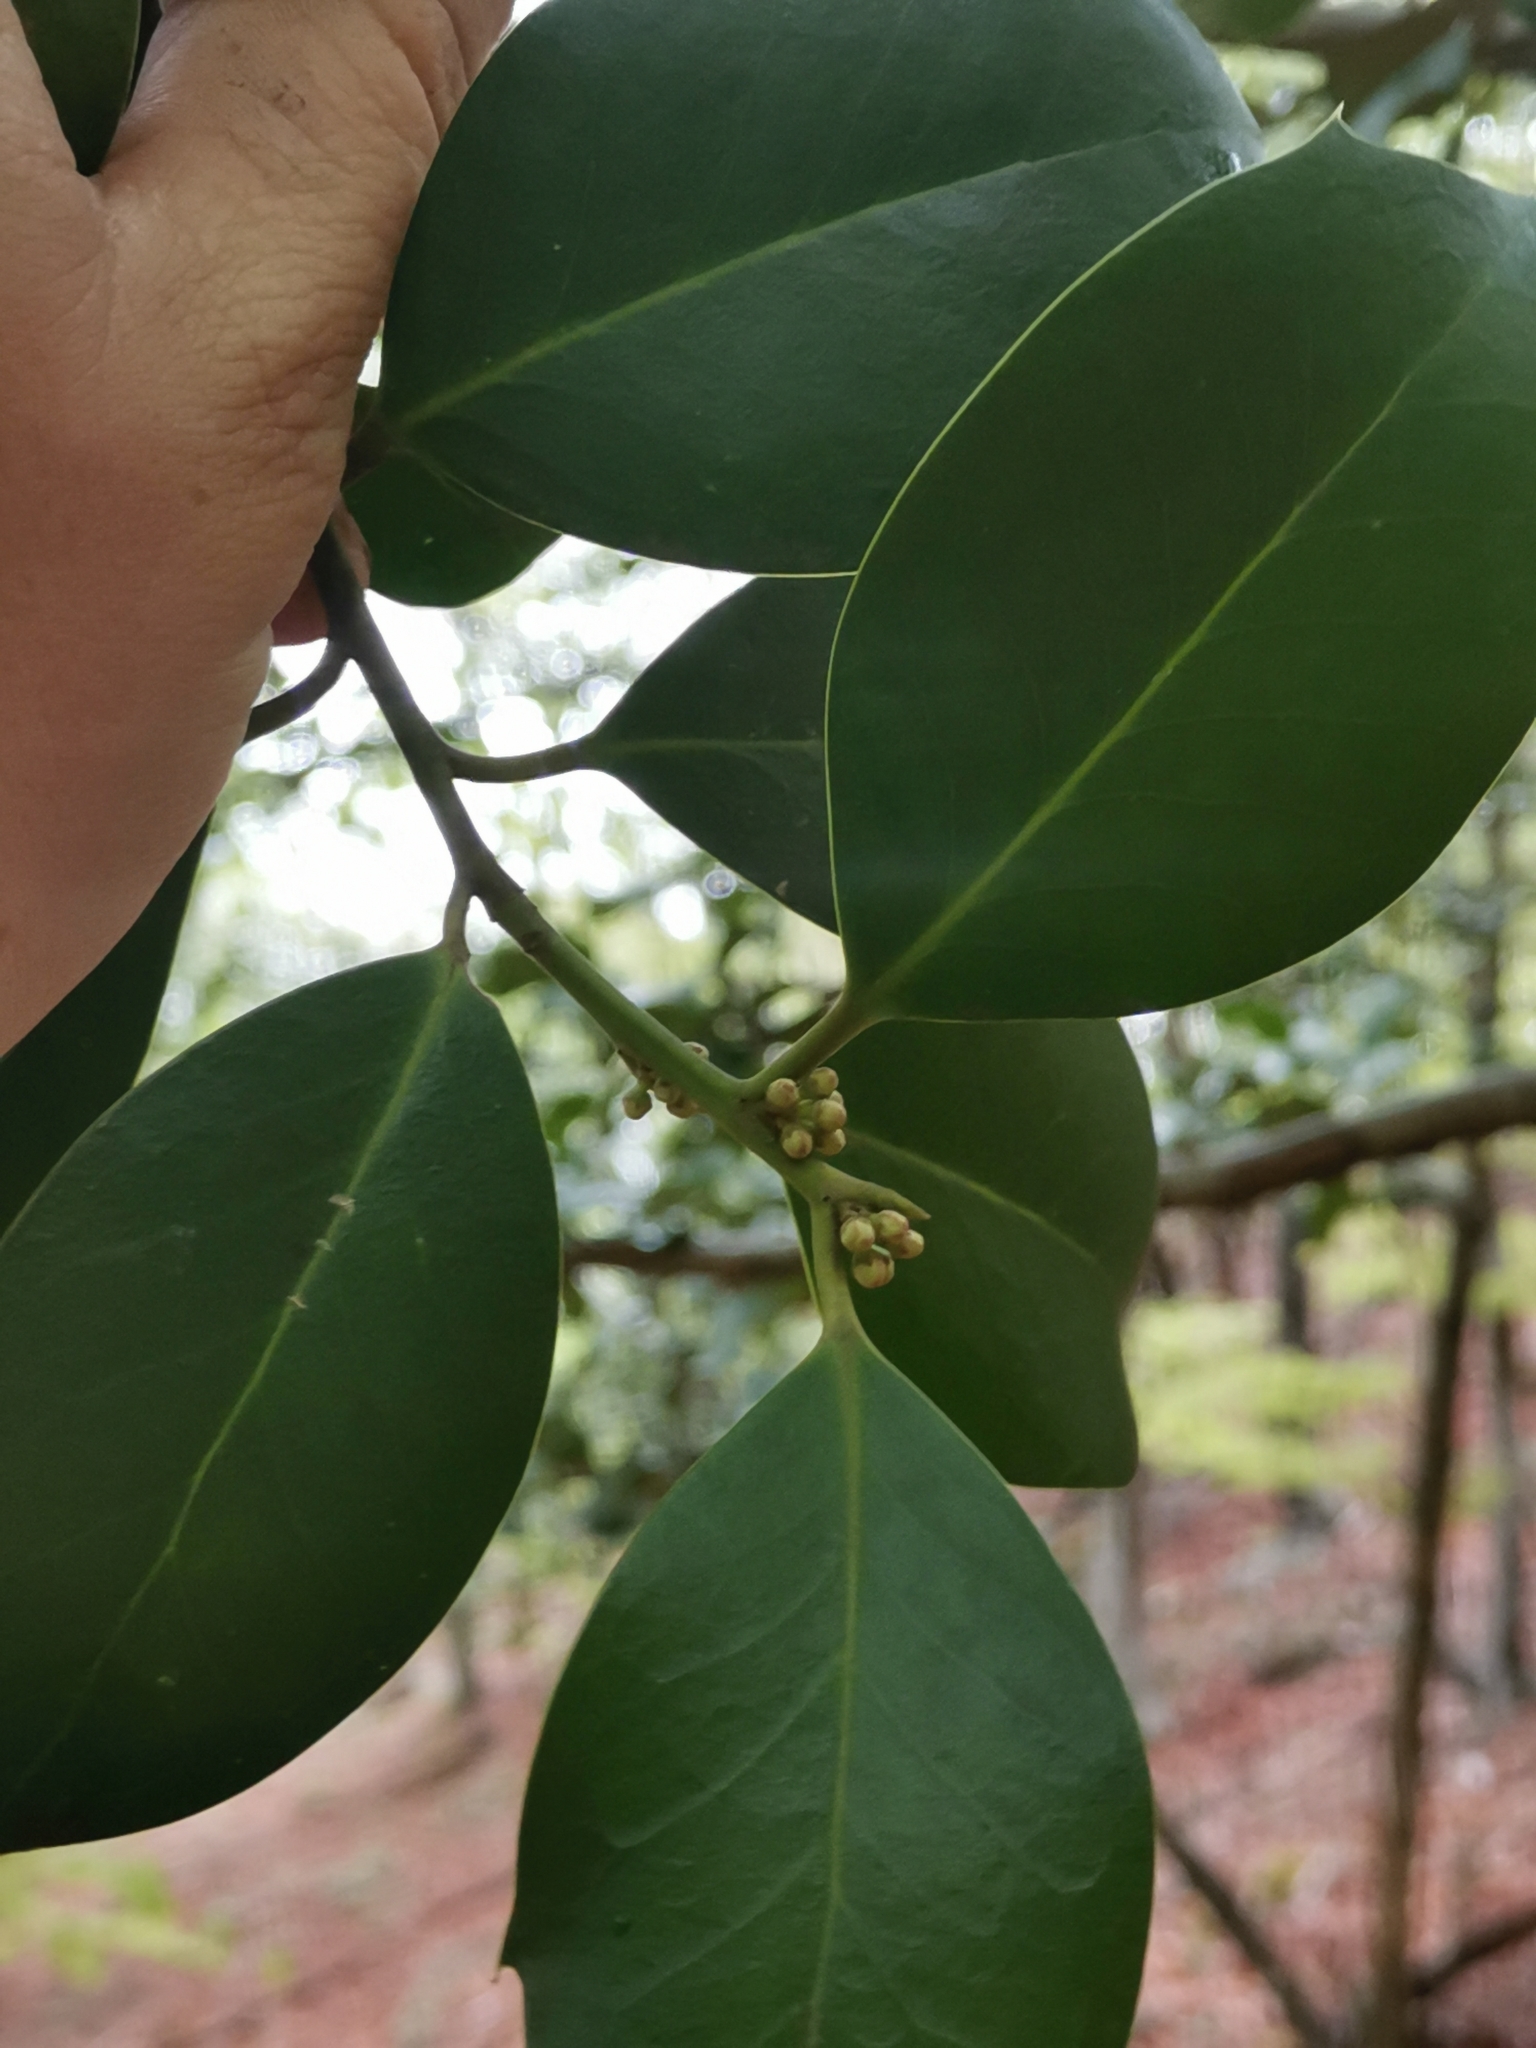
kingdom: Plantae
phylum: Tracheophyta
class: Magnoliopsida
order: Aquifoliales
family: Aquifoliaceae
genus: Ilex
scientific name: Ilex aquifolium
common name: English holly
